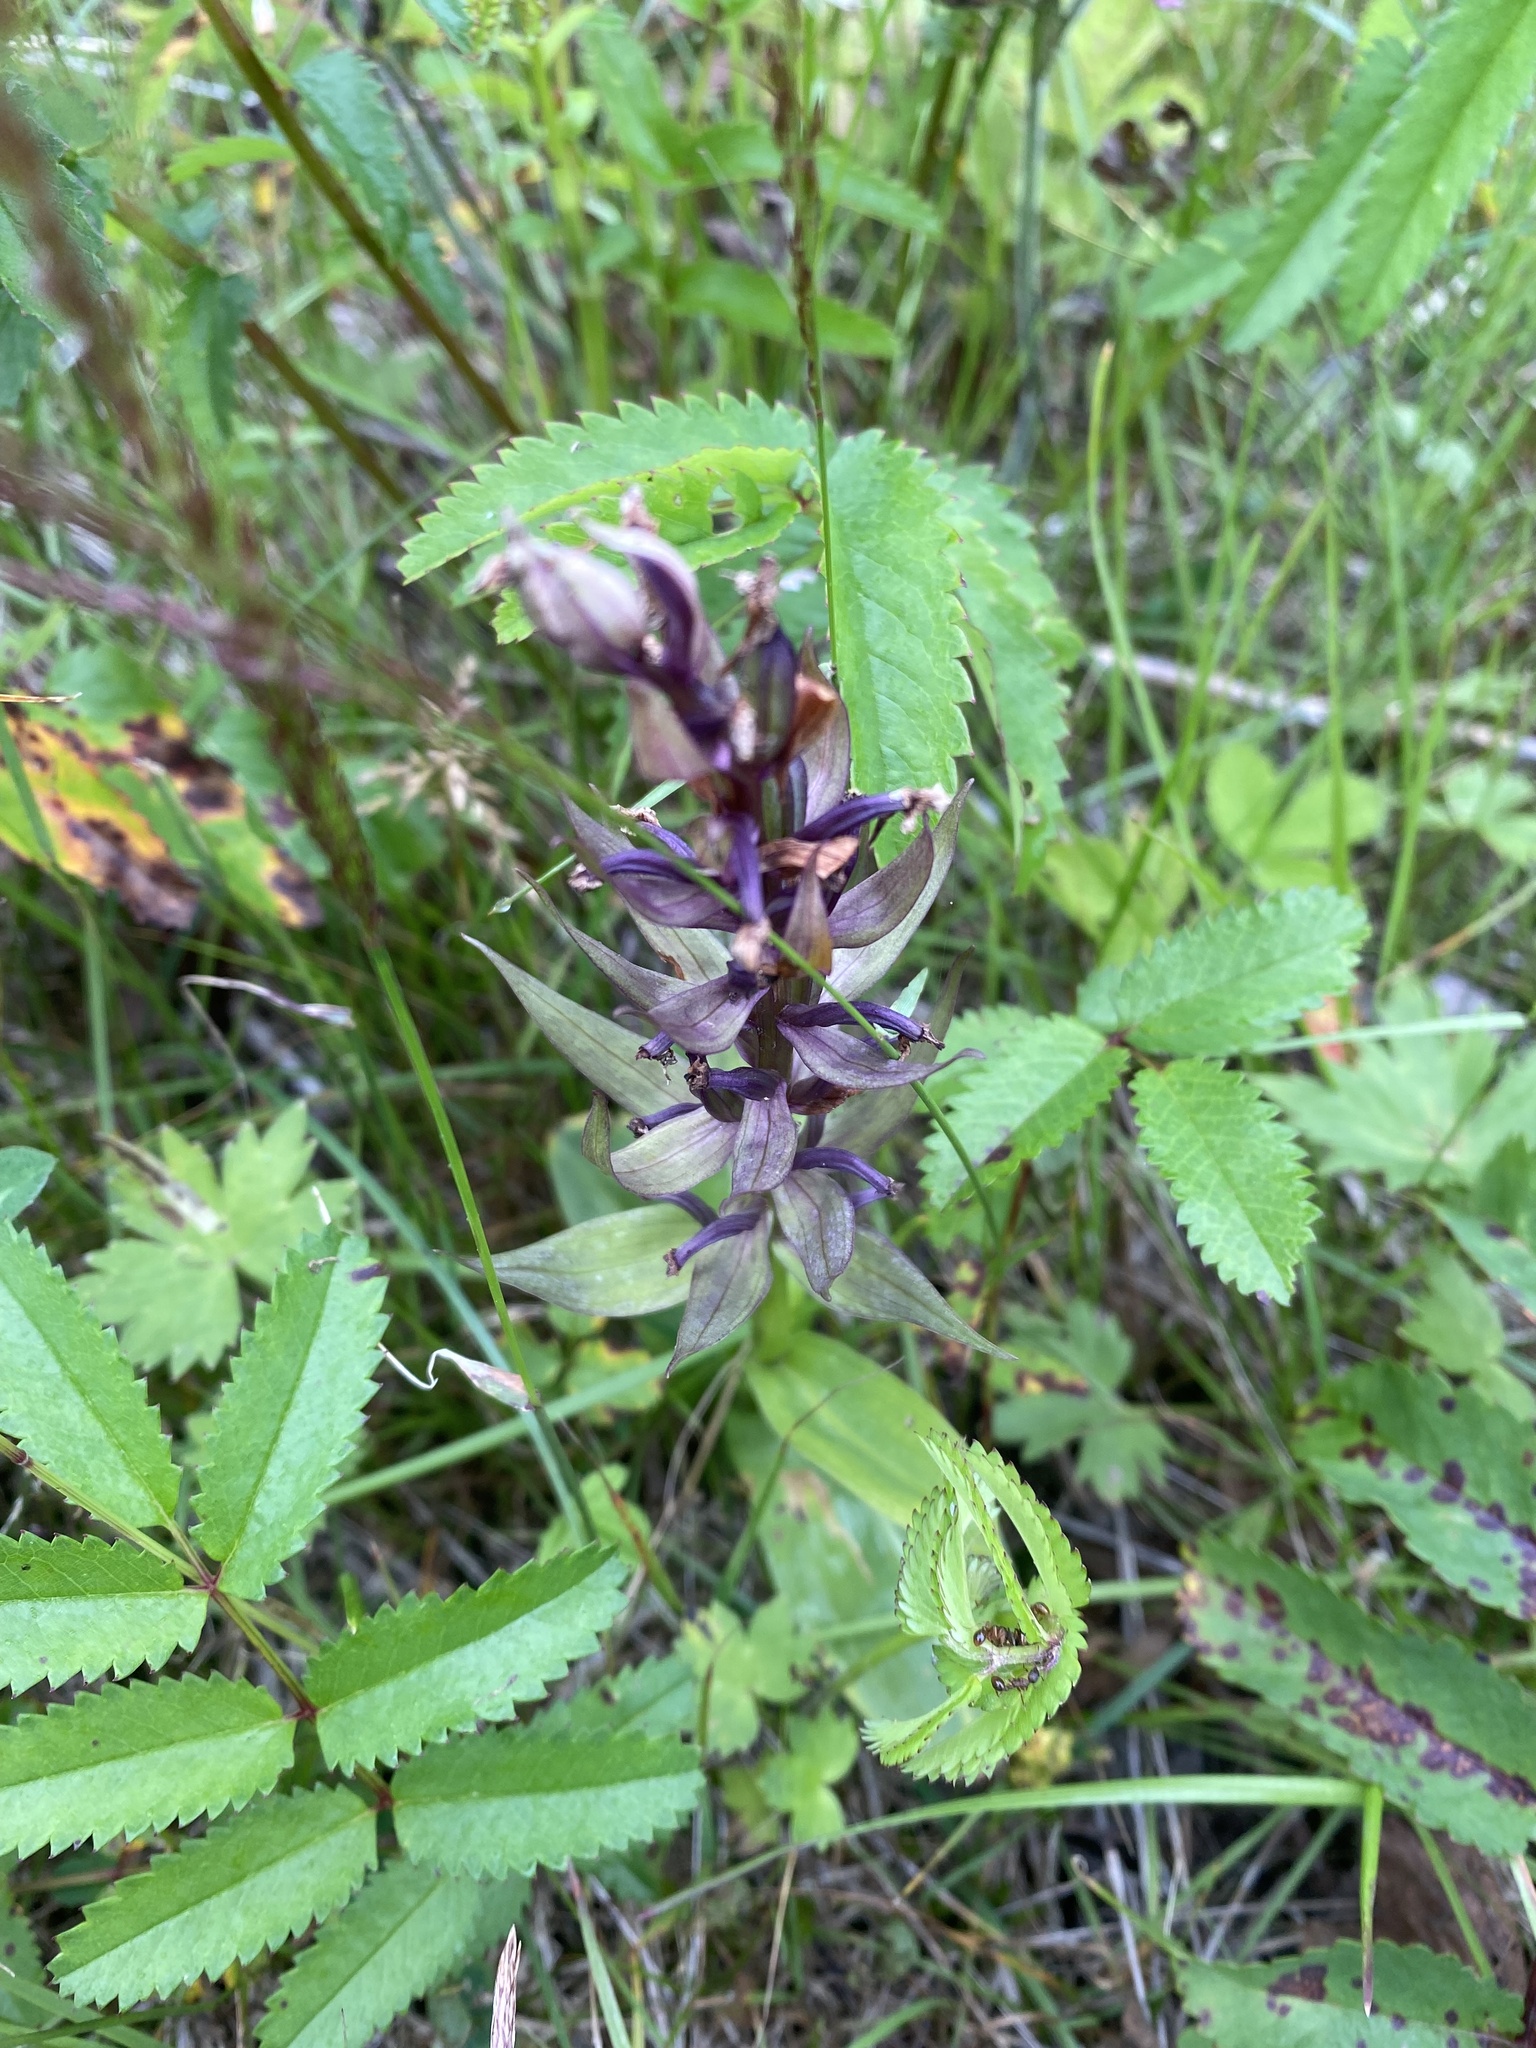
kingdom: Plantae
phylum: Tracheophyta
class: Liliopsida
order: Asparagales
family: Orchidaceae
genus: Dactylorhiza
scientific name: Dactylorhiza aristata
